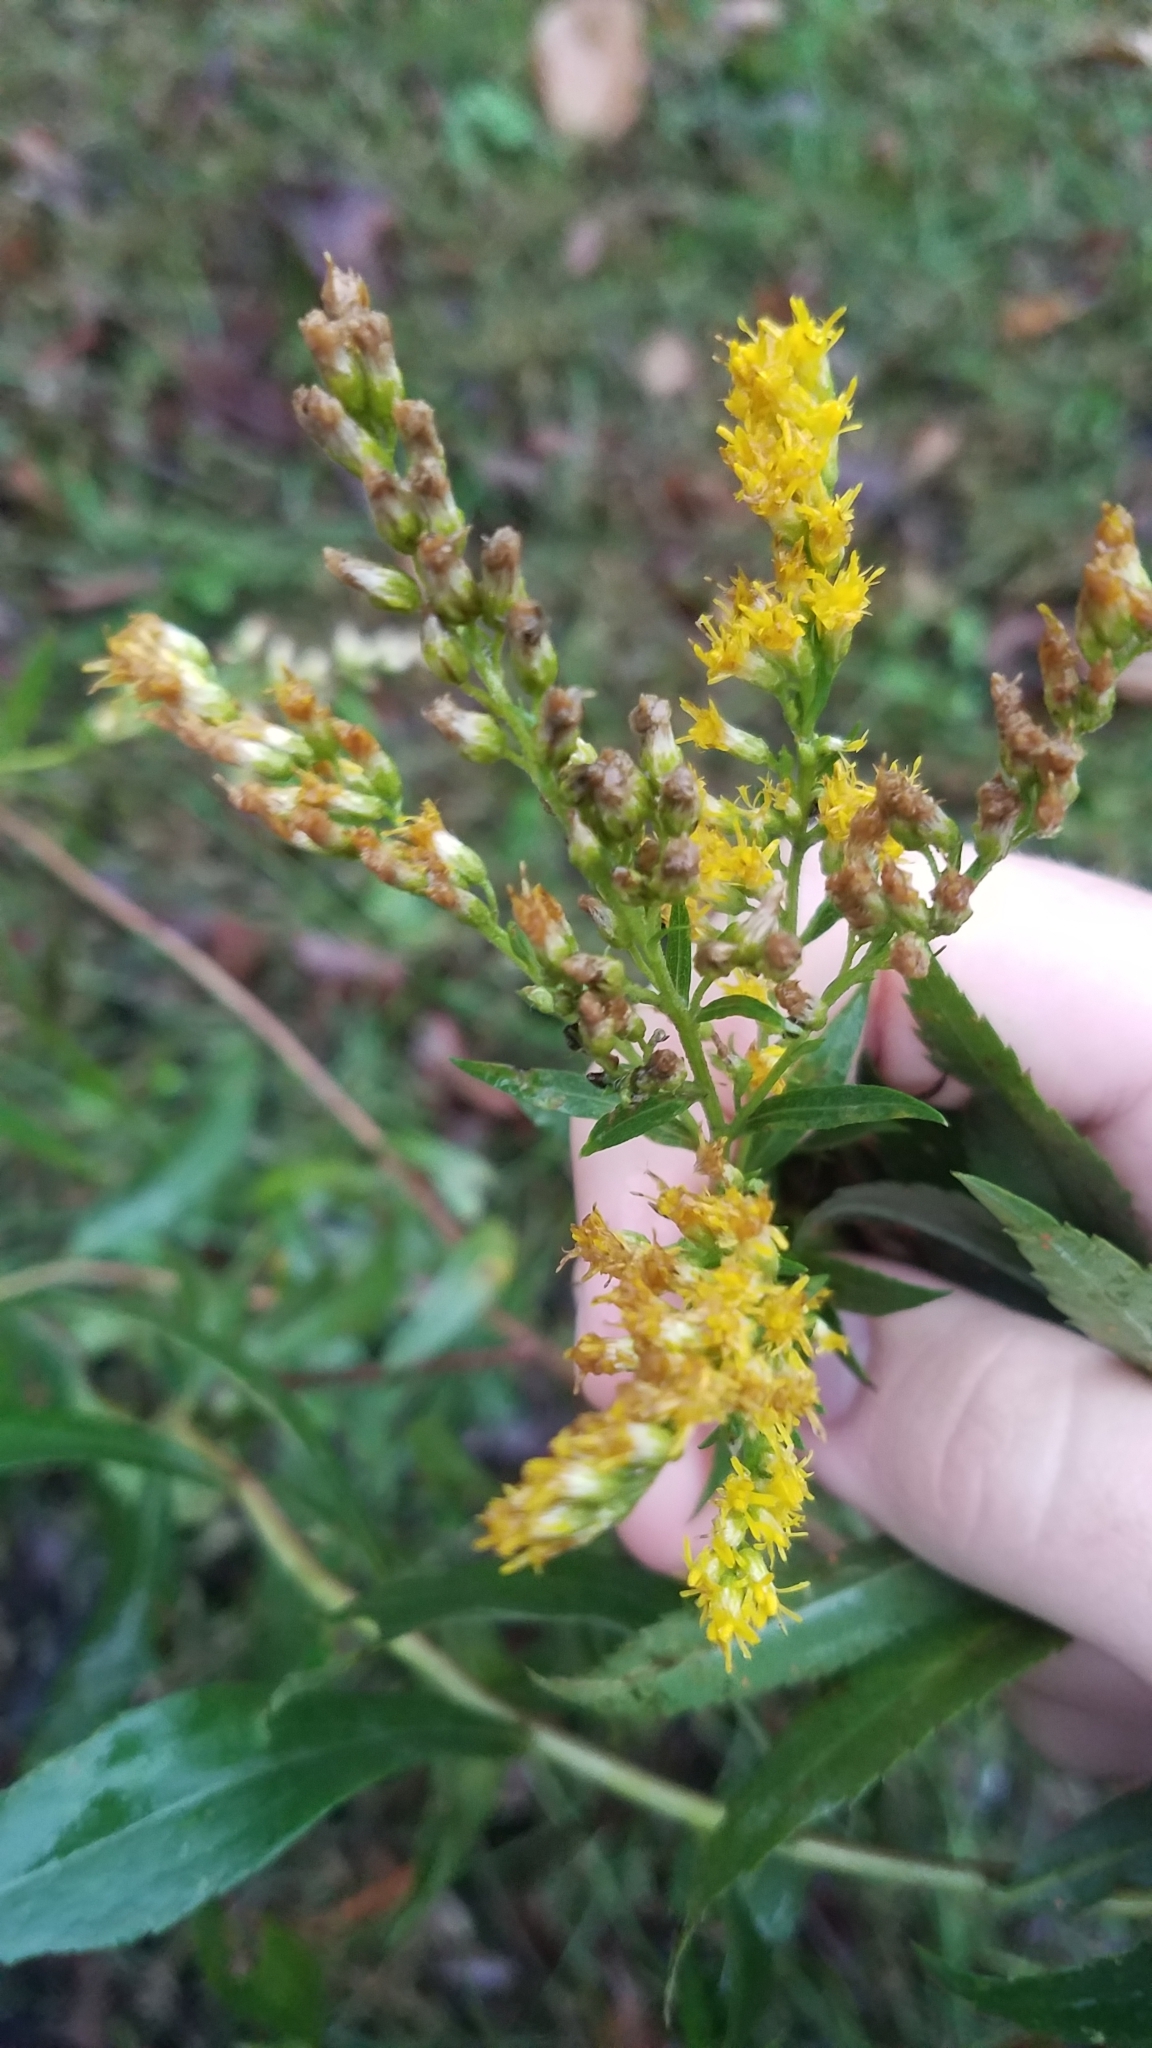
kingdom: Plantae
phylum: Tracheophyta
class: Magnoliopsida
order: Asterales
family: Asteraceae
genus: Solidago
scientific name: Solidago gigantea
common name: Giant goldenrod
